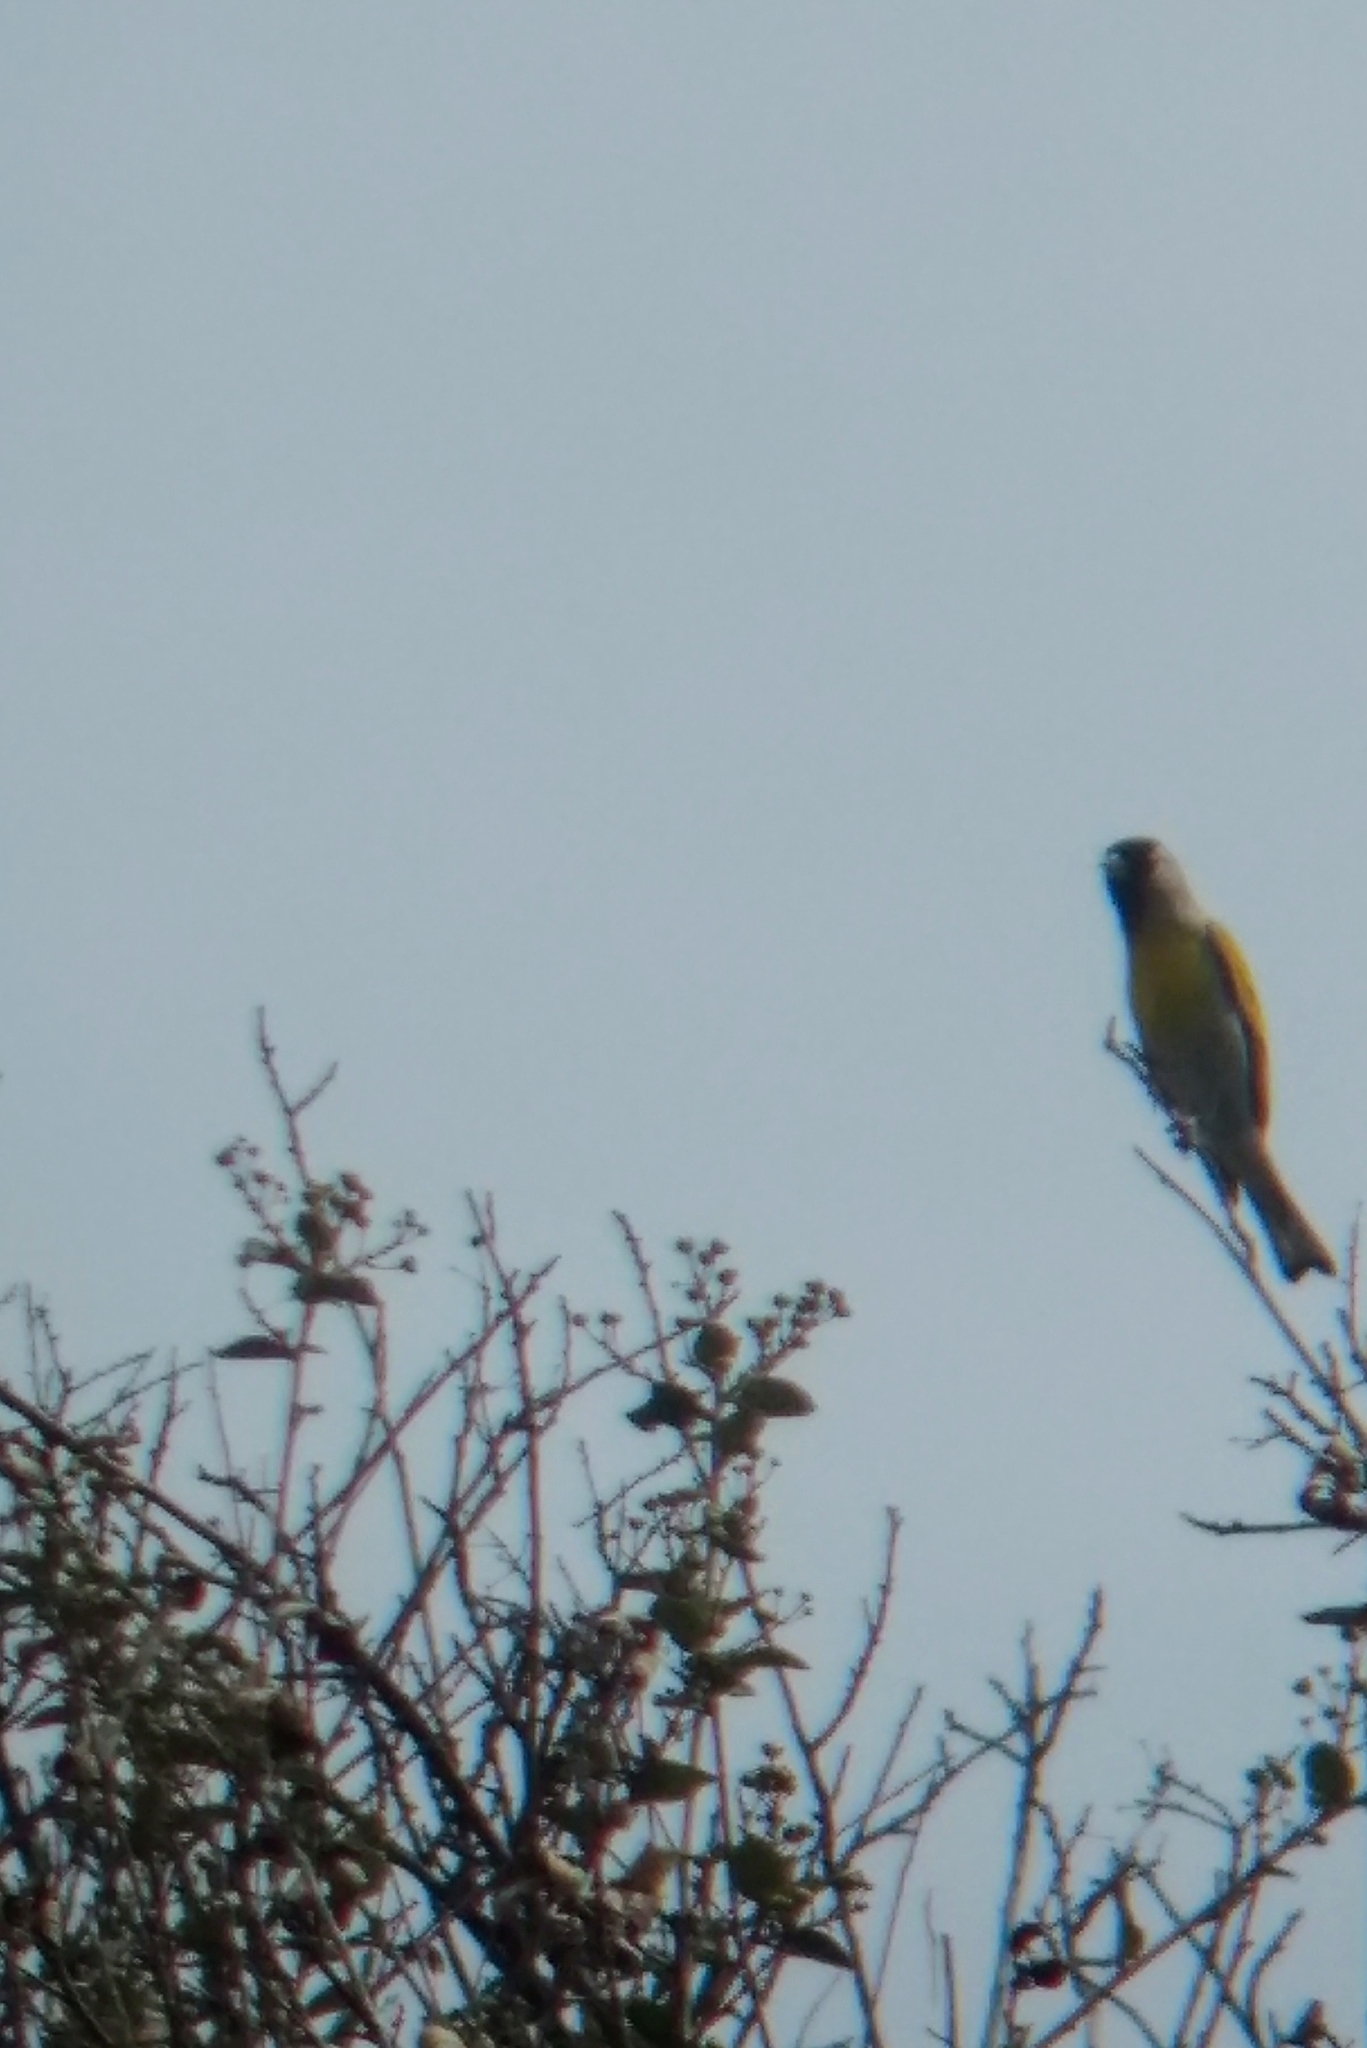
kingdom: Animalia
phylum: Chordata
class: Aves
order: Passeriformes
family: Fringillidae
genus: Spinus
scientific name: Spinus lawrencei
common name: Lawrence's goldfinch
